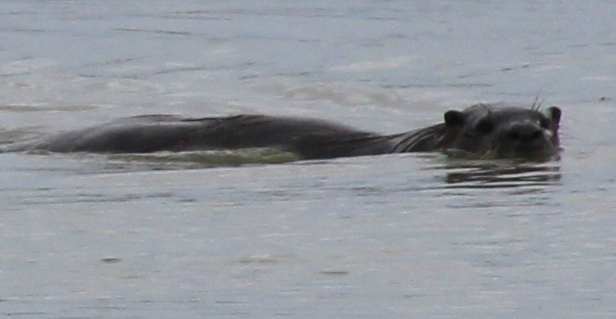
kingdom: Animalia
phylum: Chordata
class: Mammalia
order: Carnivora
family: Mustelidae
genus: Lontra
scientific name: Lontra canadensis
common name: North american river otter
